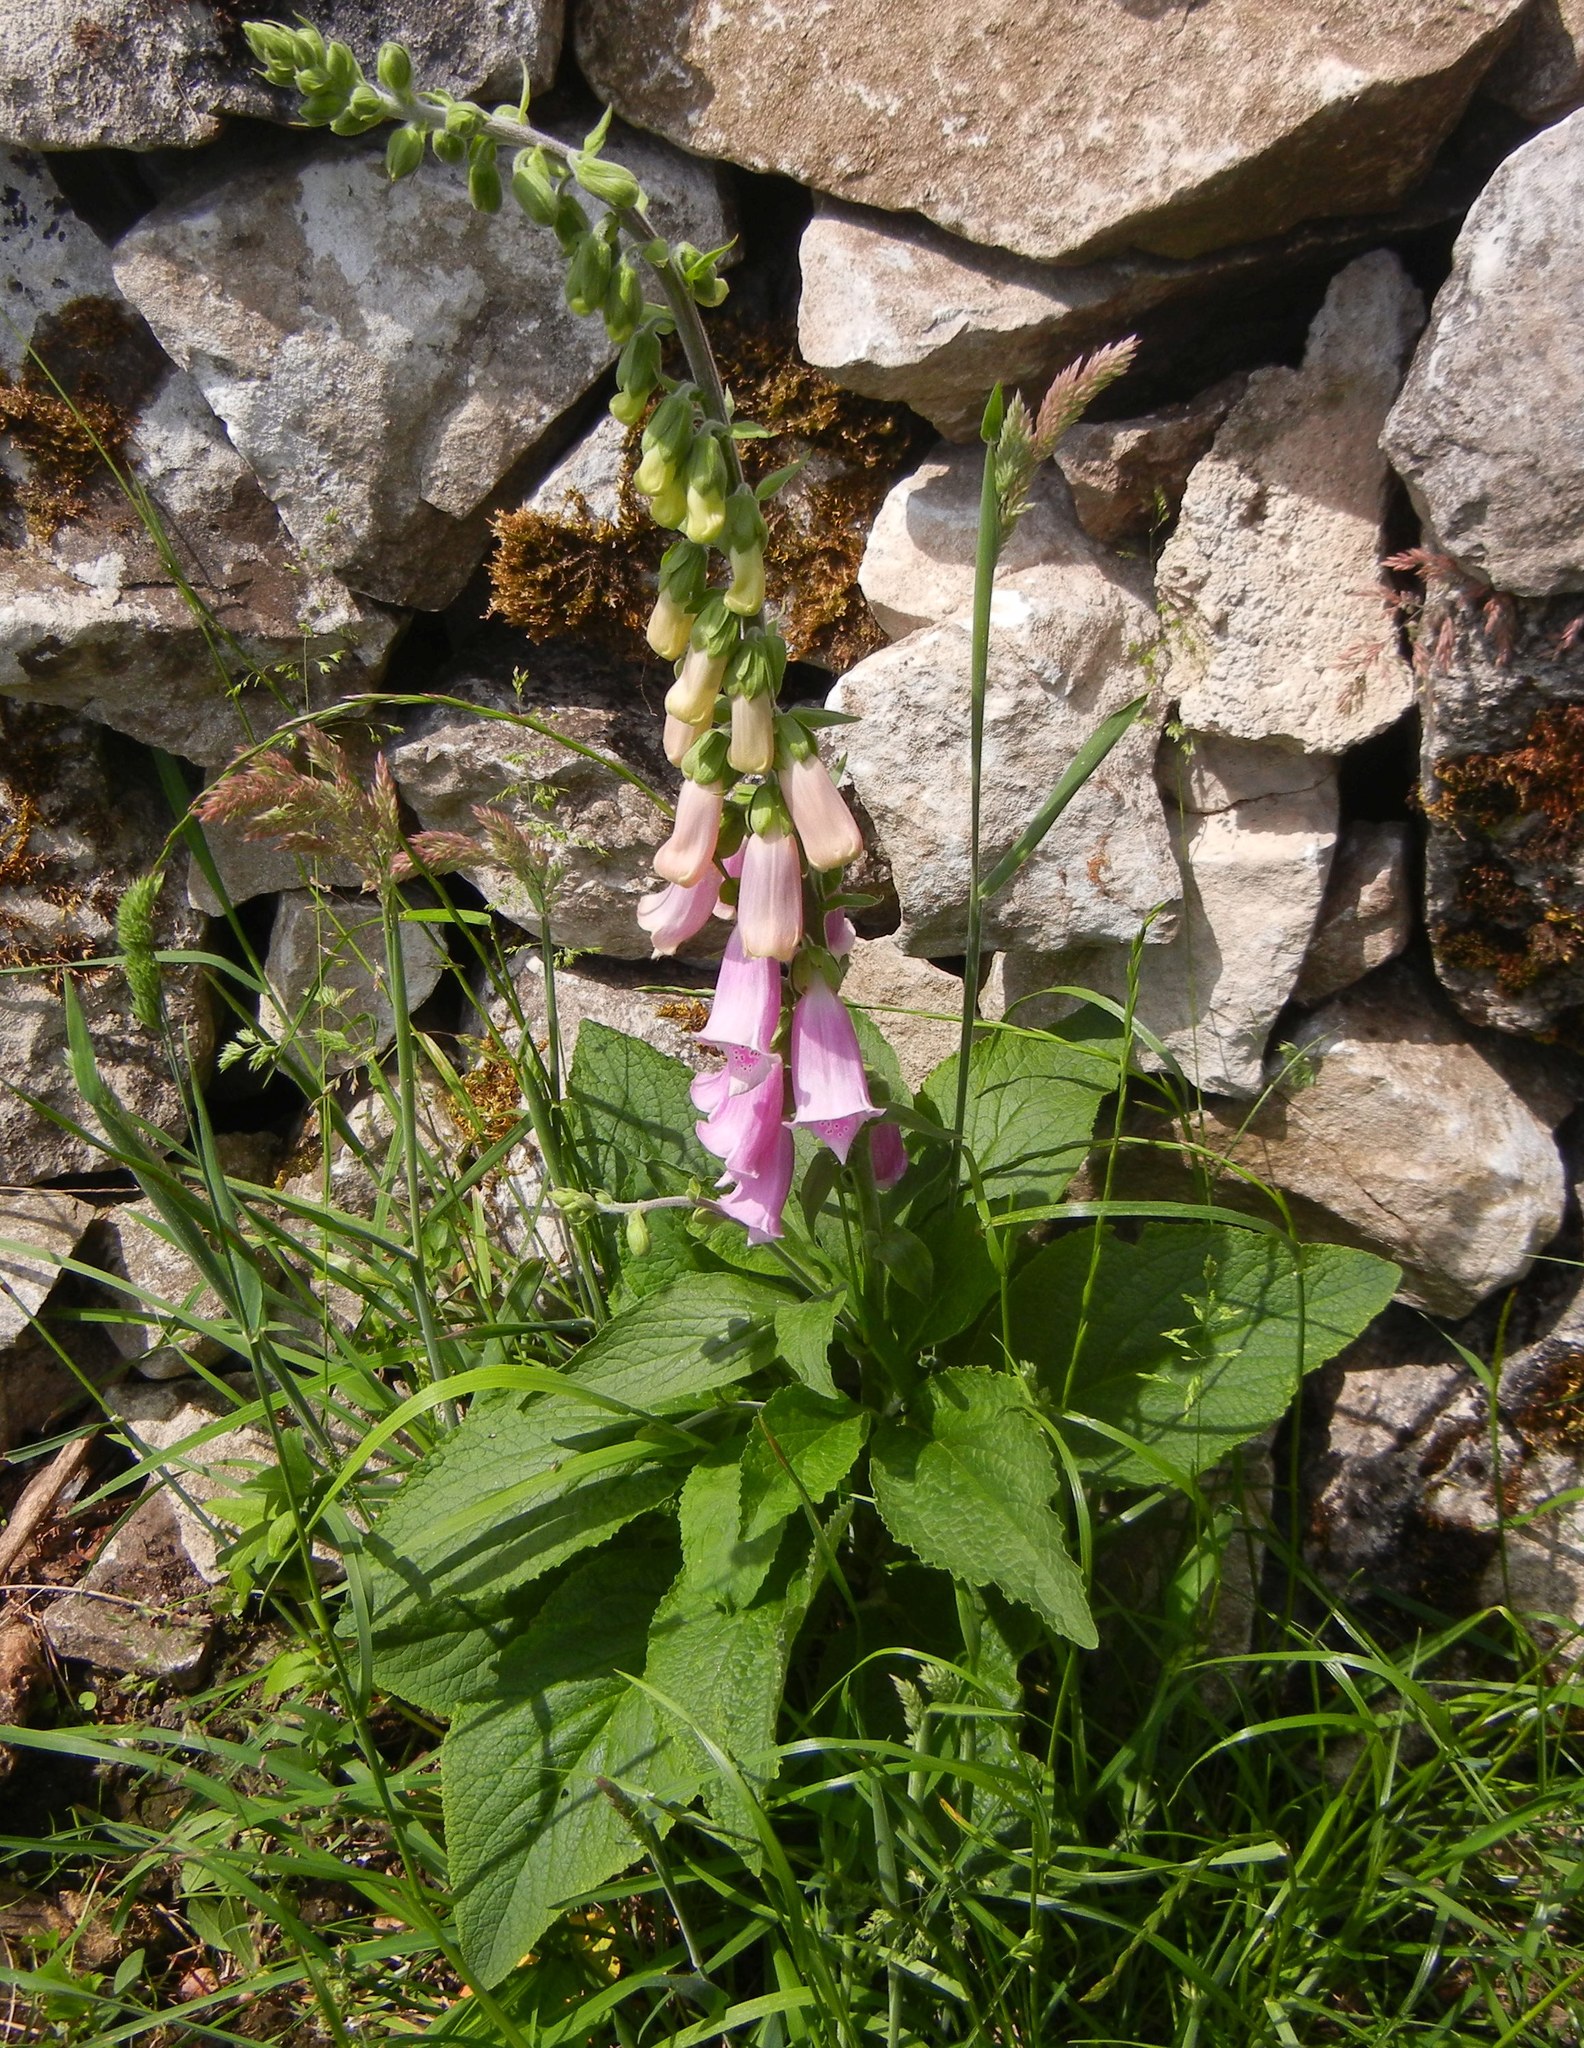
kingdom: Plantae
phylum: Tracheophyta
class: Magnoliopsida
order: Lamiales
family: Plantaginaceae
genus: Digitalis
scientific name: Digitalis purpurea
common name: Foxglove
